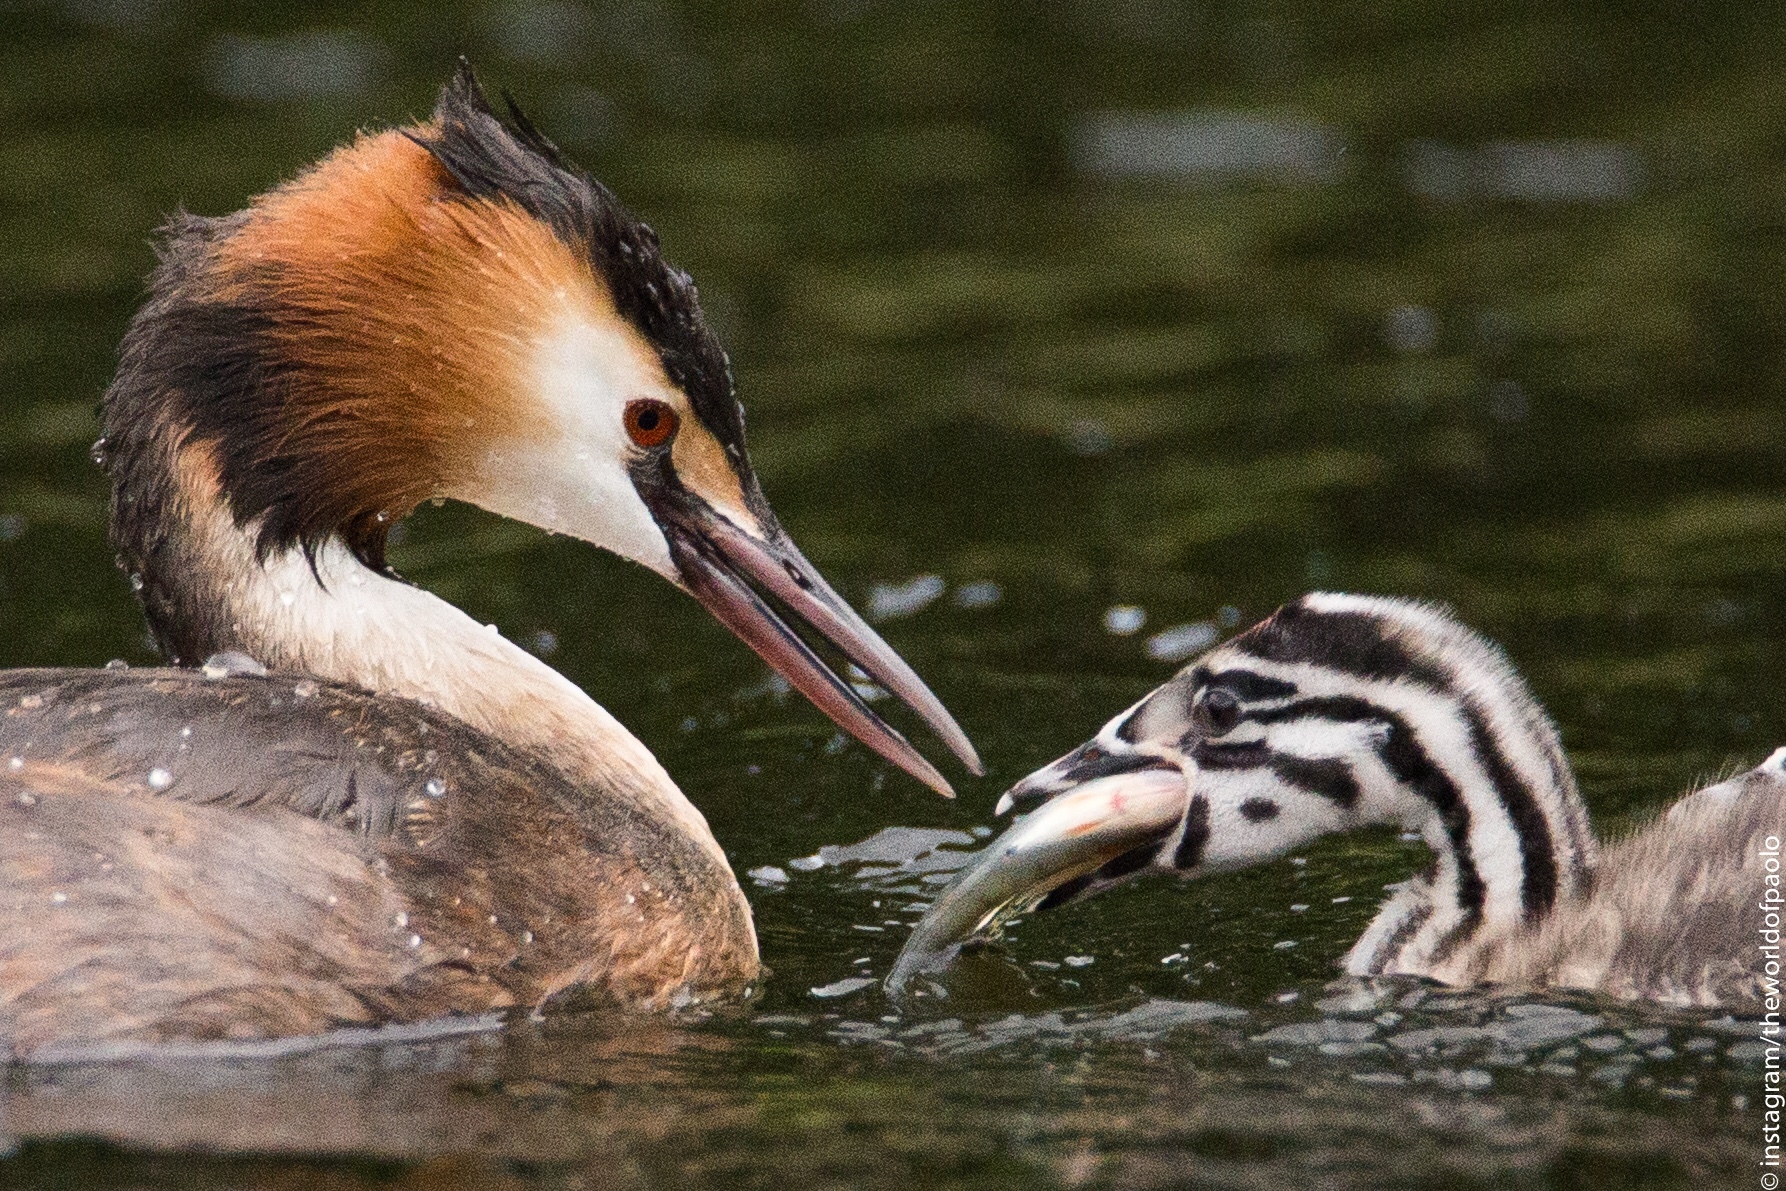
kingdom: Animalia
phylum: Chordata
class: Aves
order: Podicipediformes
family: Podicipedidae
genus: Podiceps
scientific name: Podiceps cristatus
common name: Great crested grebe
